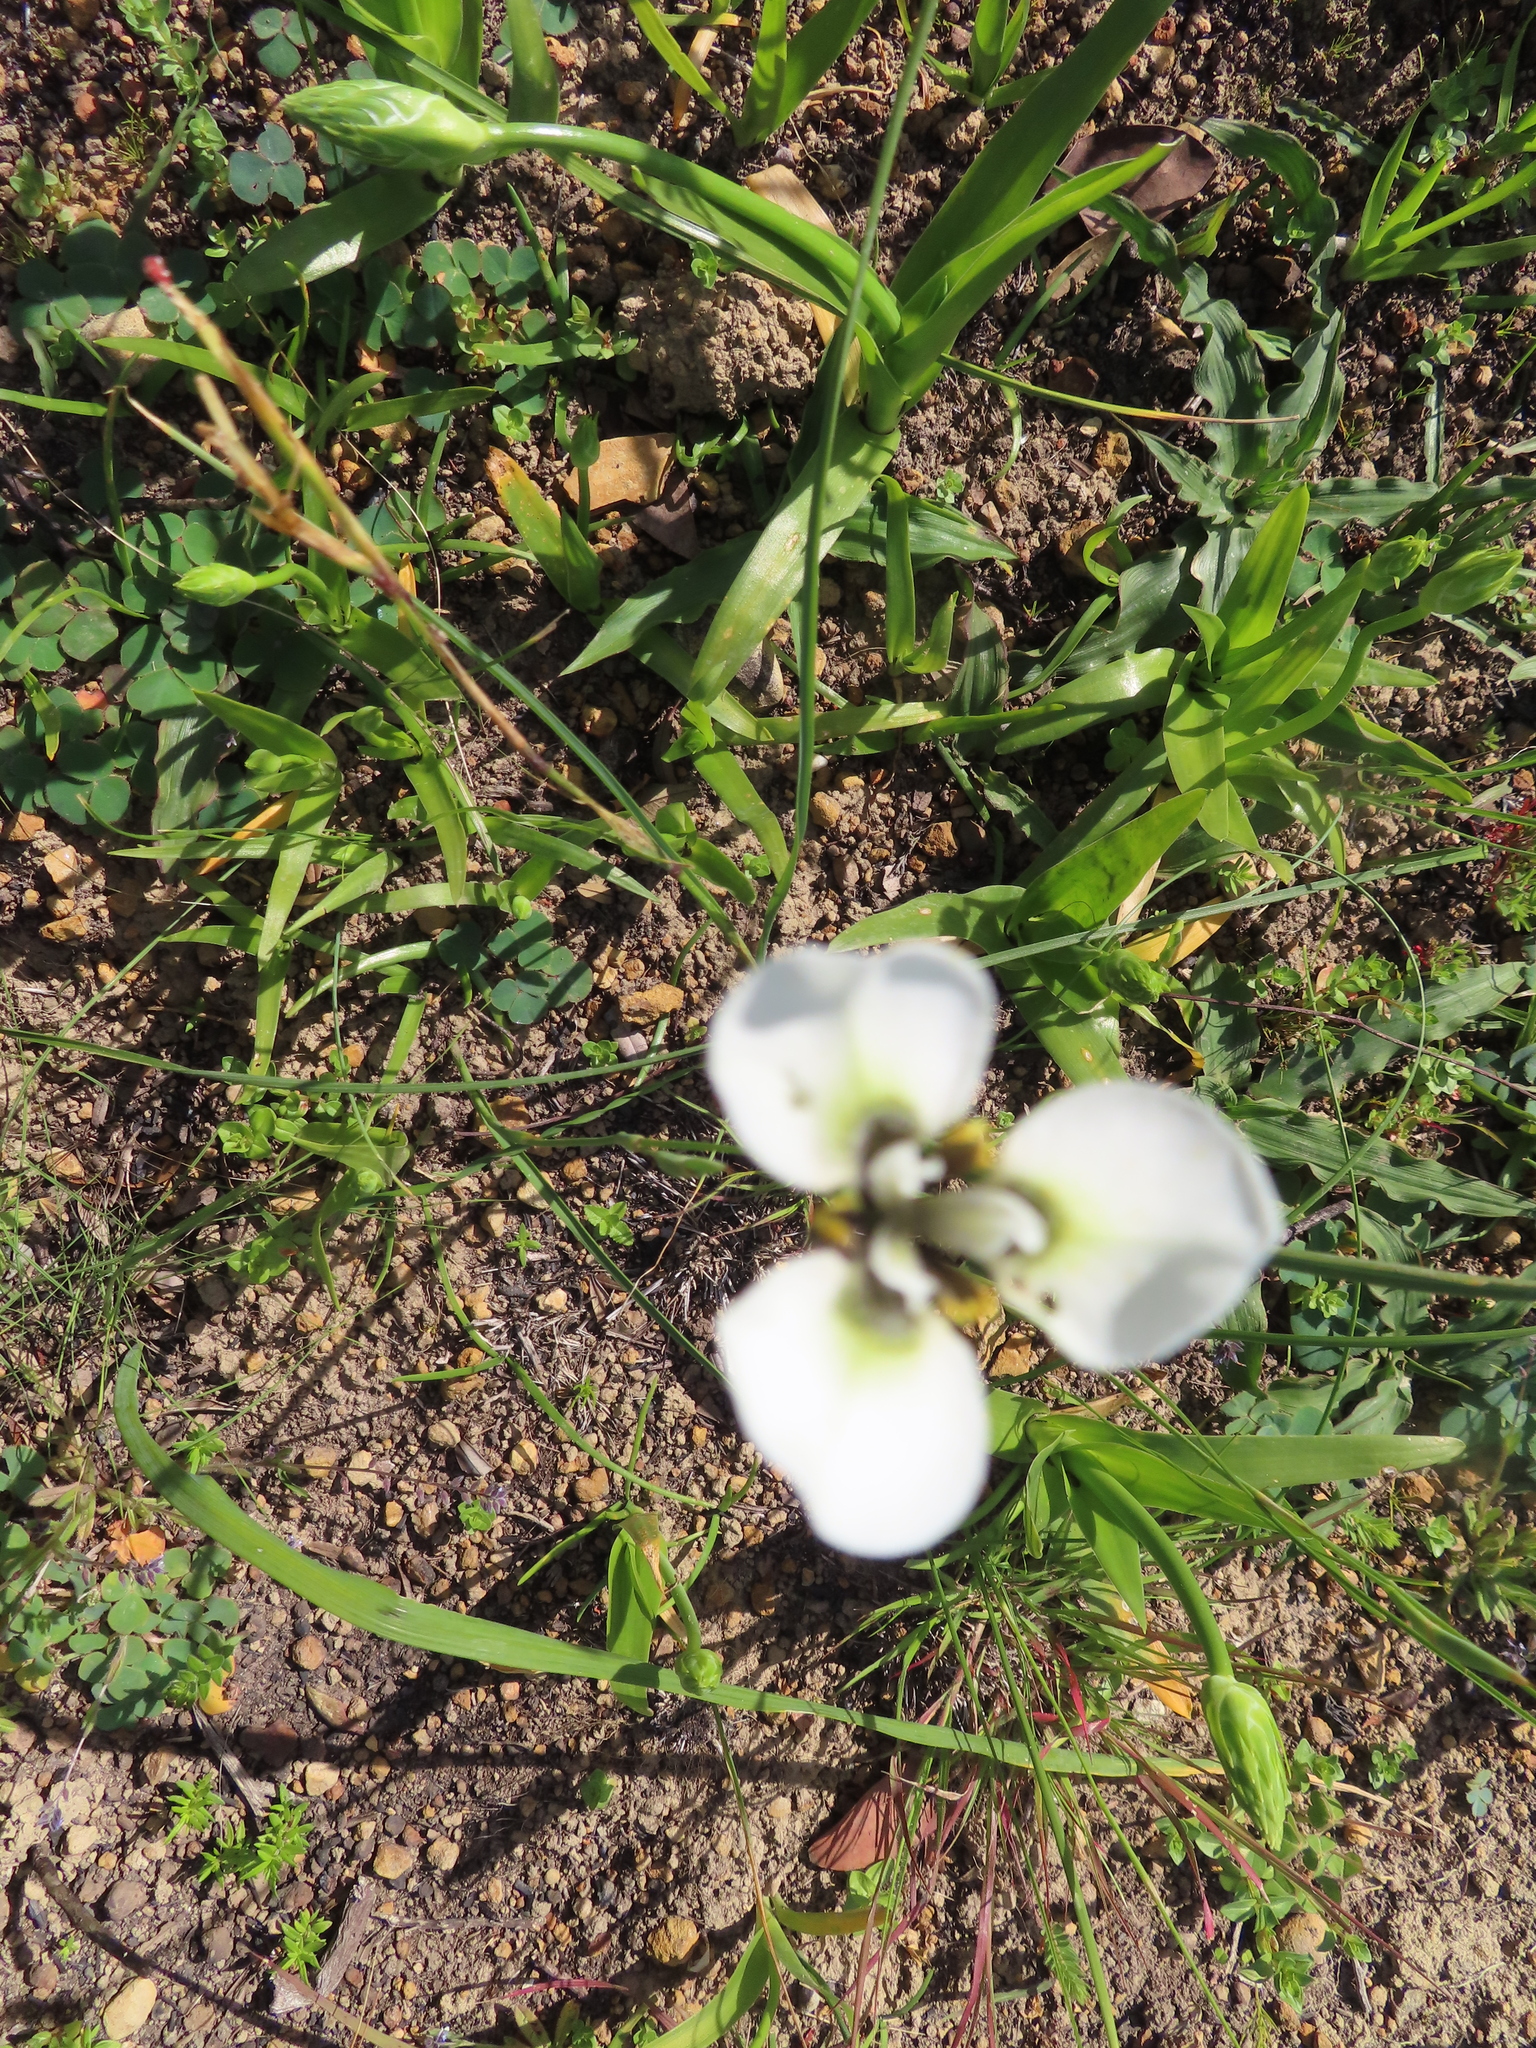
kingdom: Plantae
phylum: Tracheophyta
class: Liliopsida
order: Asparagales
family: Iridaceae
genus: Moraea
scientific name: Moraea tricuspidata
